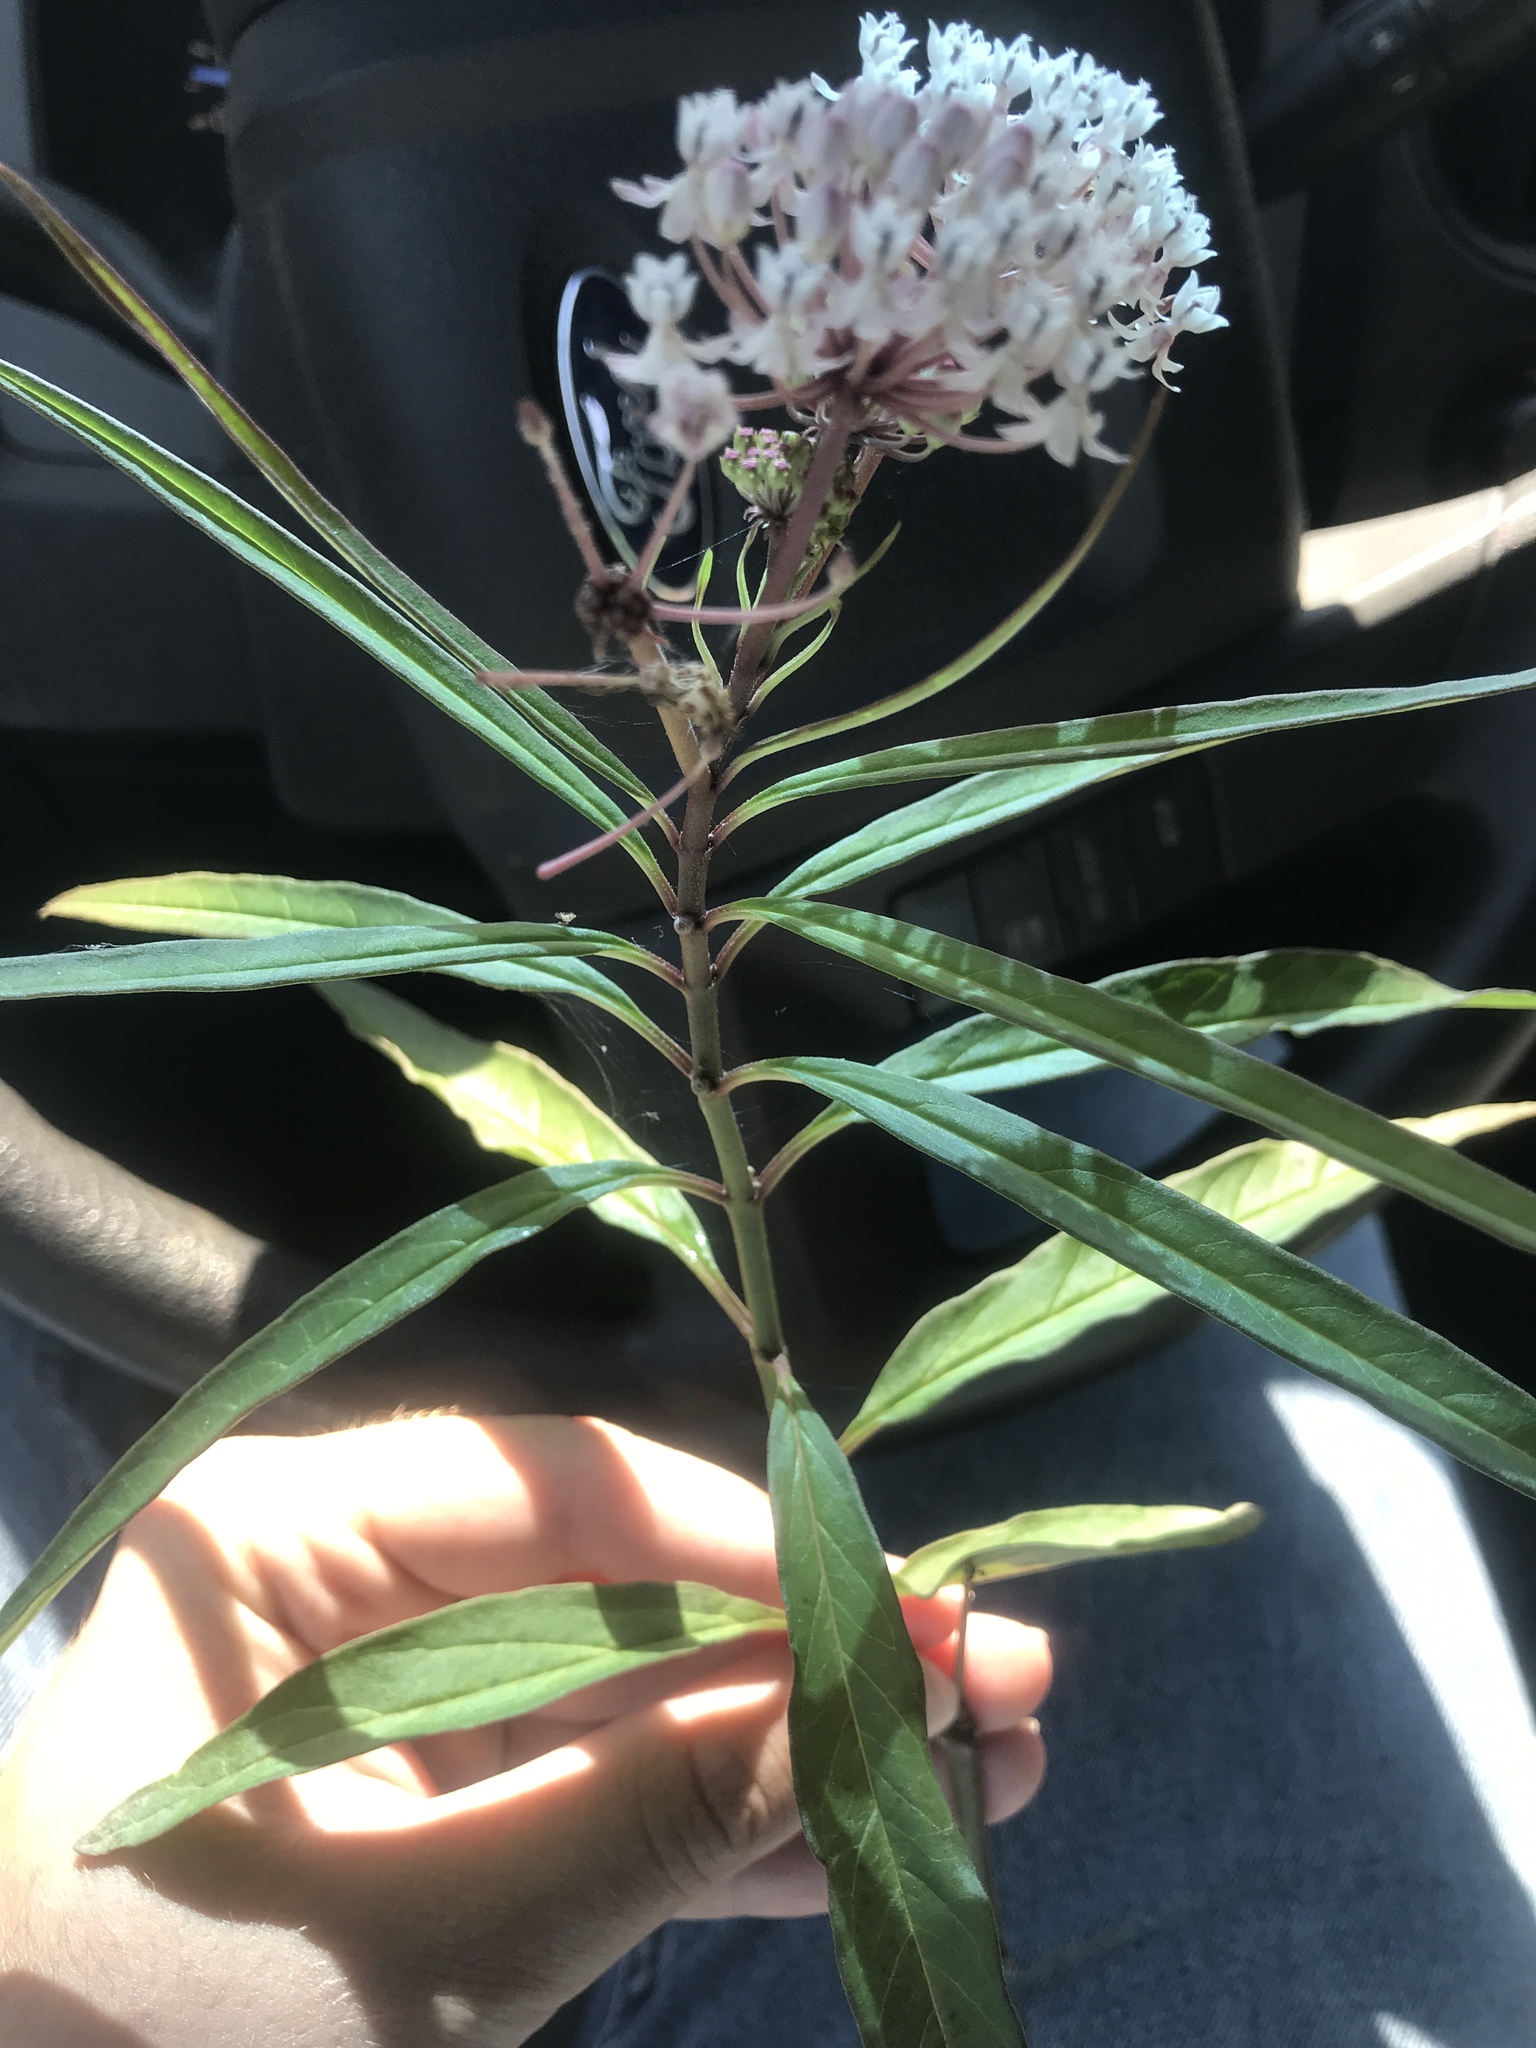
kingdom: Plantae
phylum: Tracheophyta
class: Magnoliopsida
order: Gentianales
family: Apocynaceae
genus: Asclepias
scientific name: Asclepias perennis
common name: Smooth-seed milkweed
